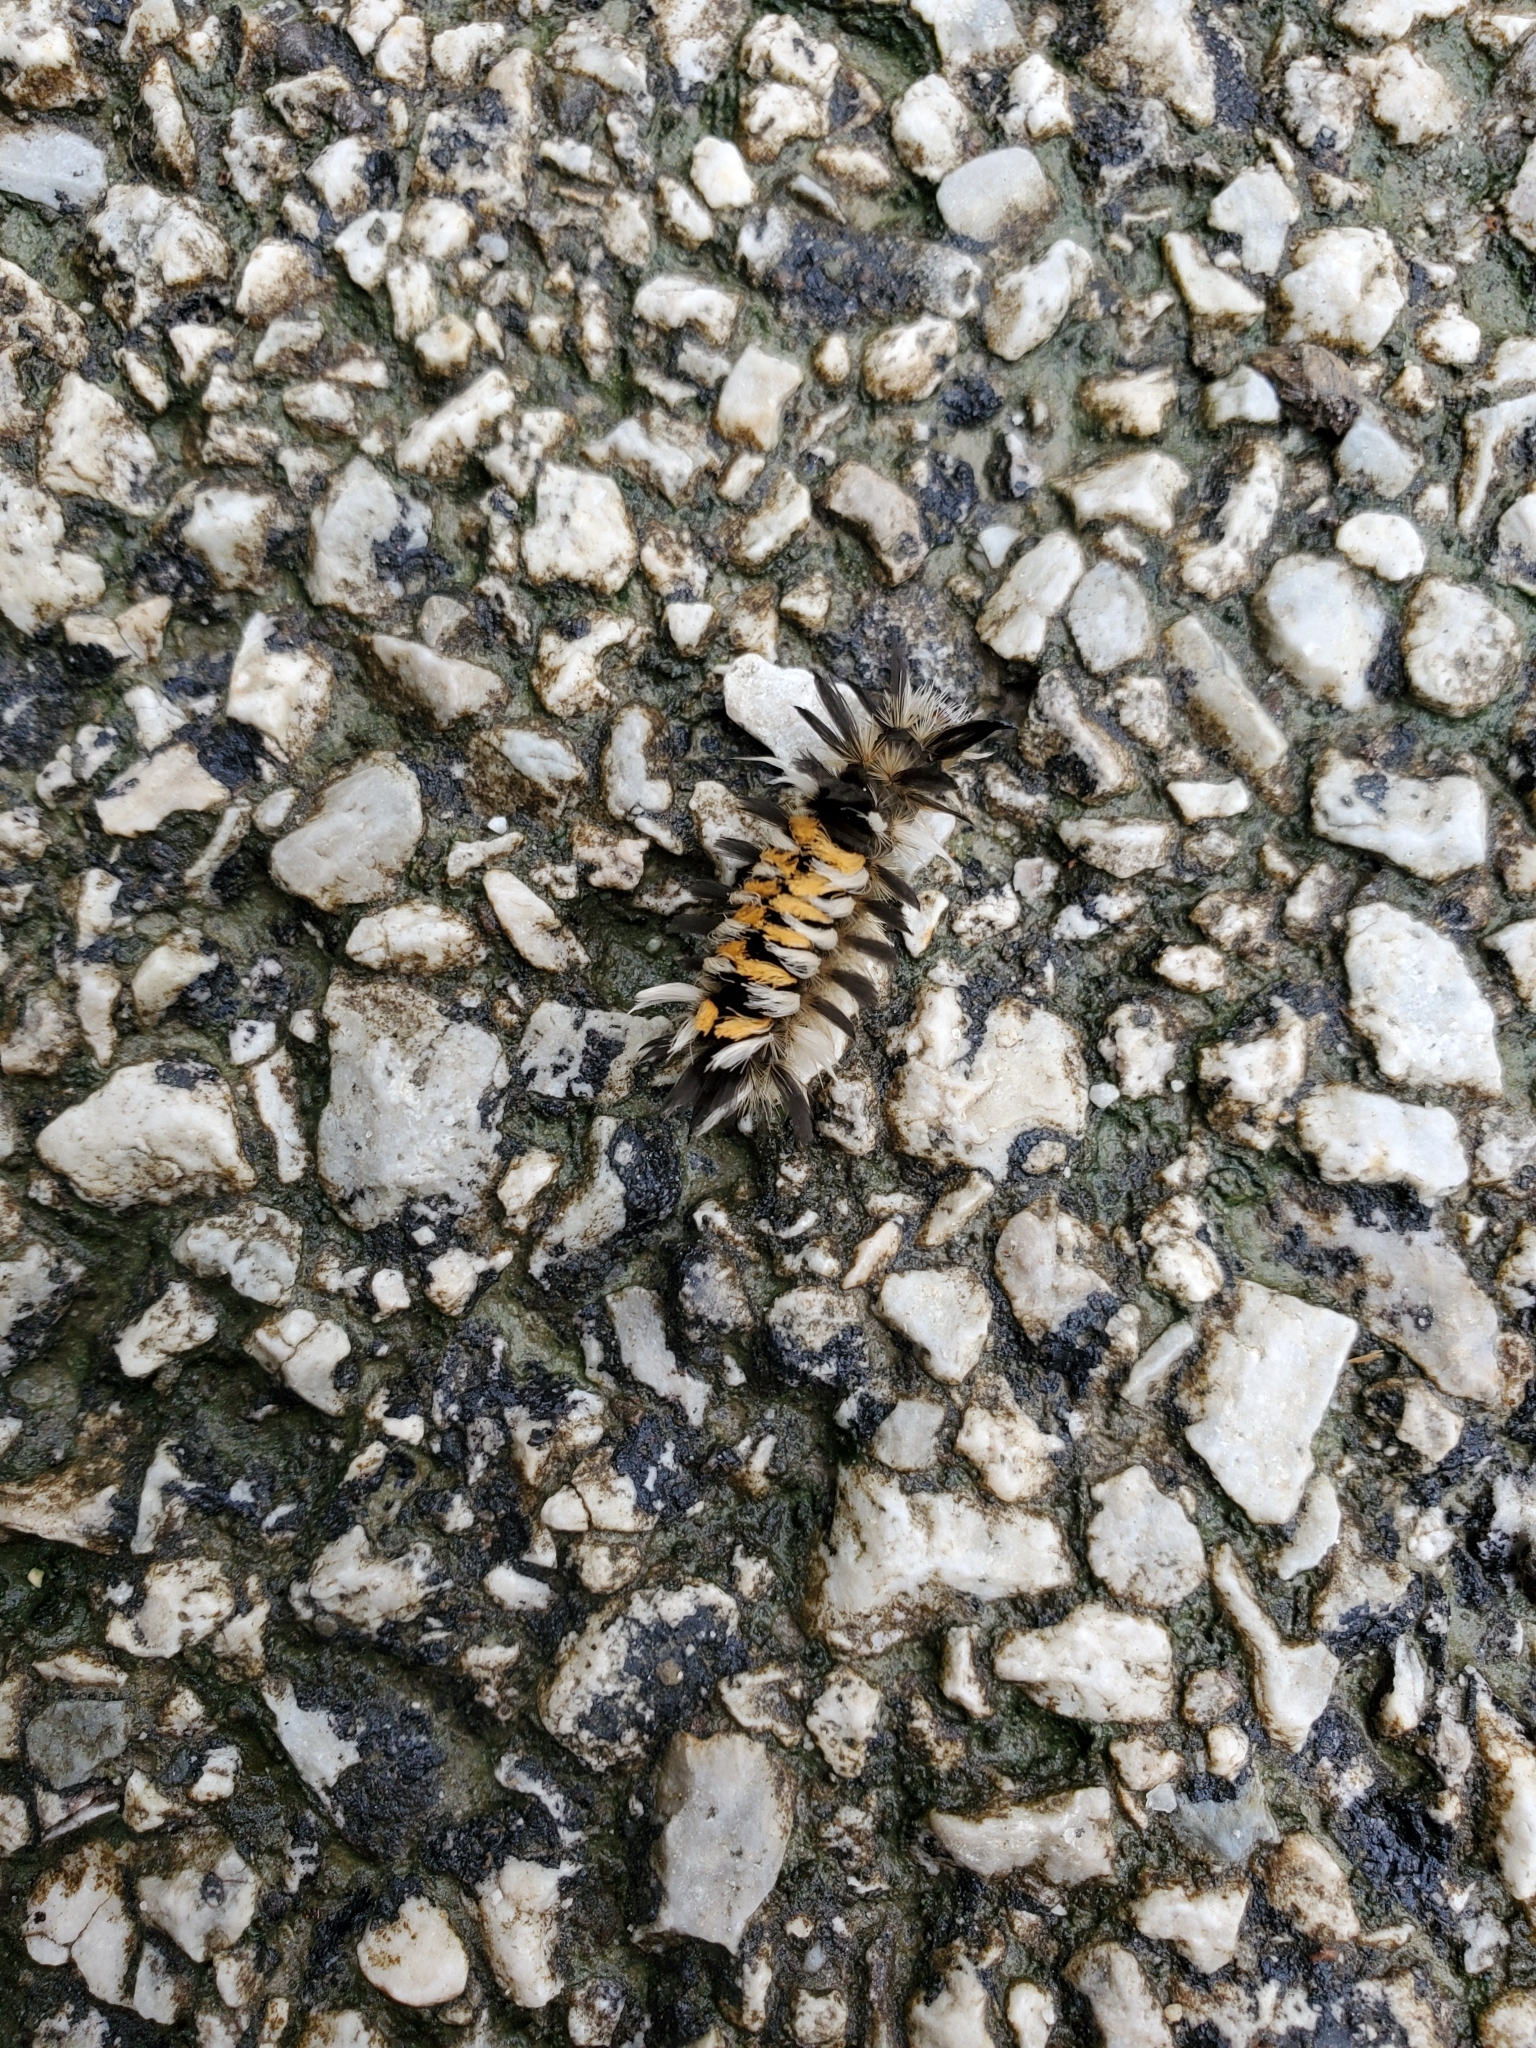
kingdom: Animalia
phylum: Arthropoda
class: Insecta
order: Lepidoptera
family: Erebidae
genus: Euchaetes
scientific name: Euchaetes egle
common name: Milkweed tussock moth
